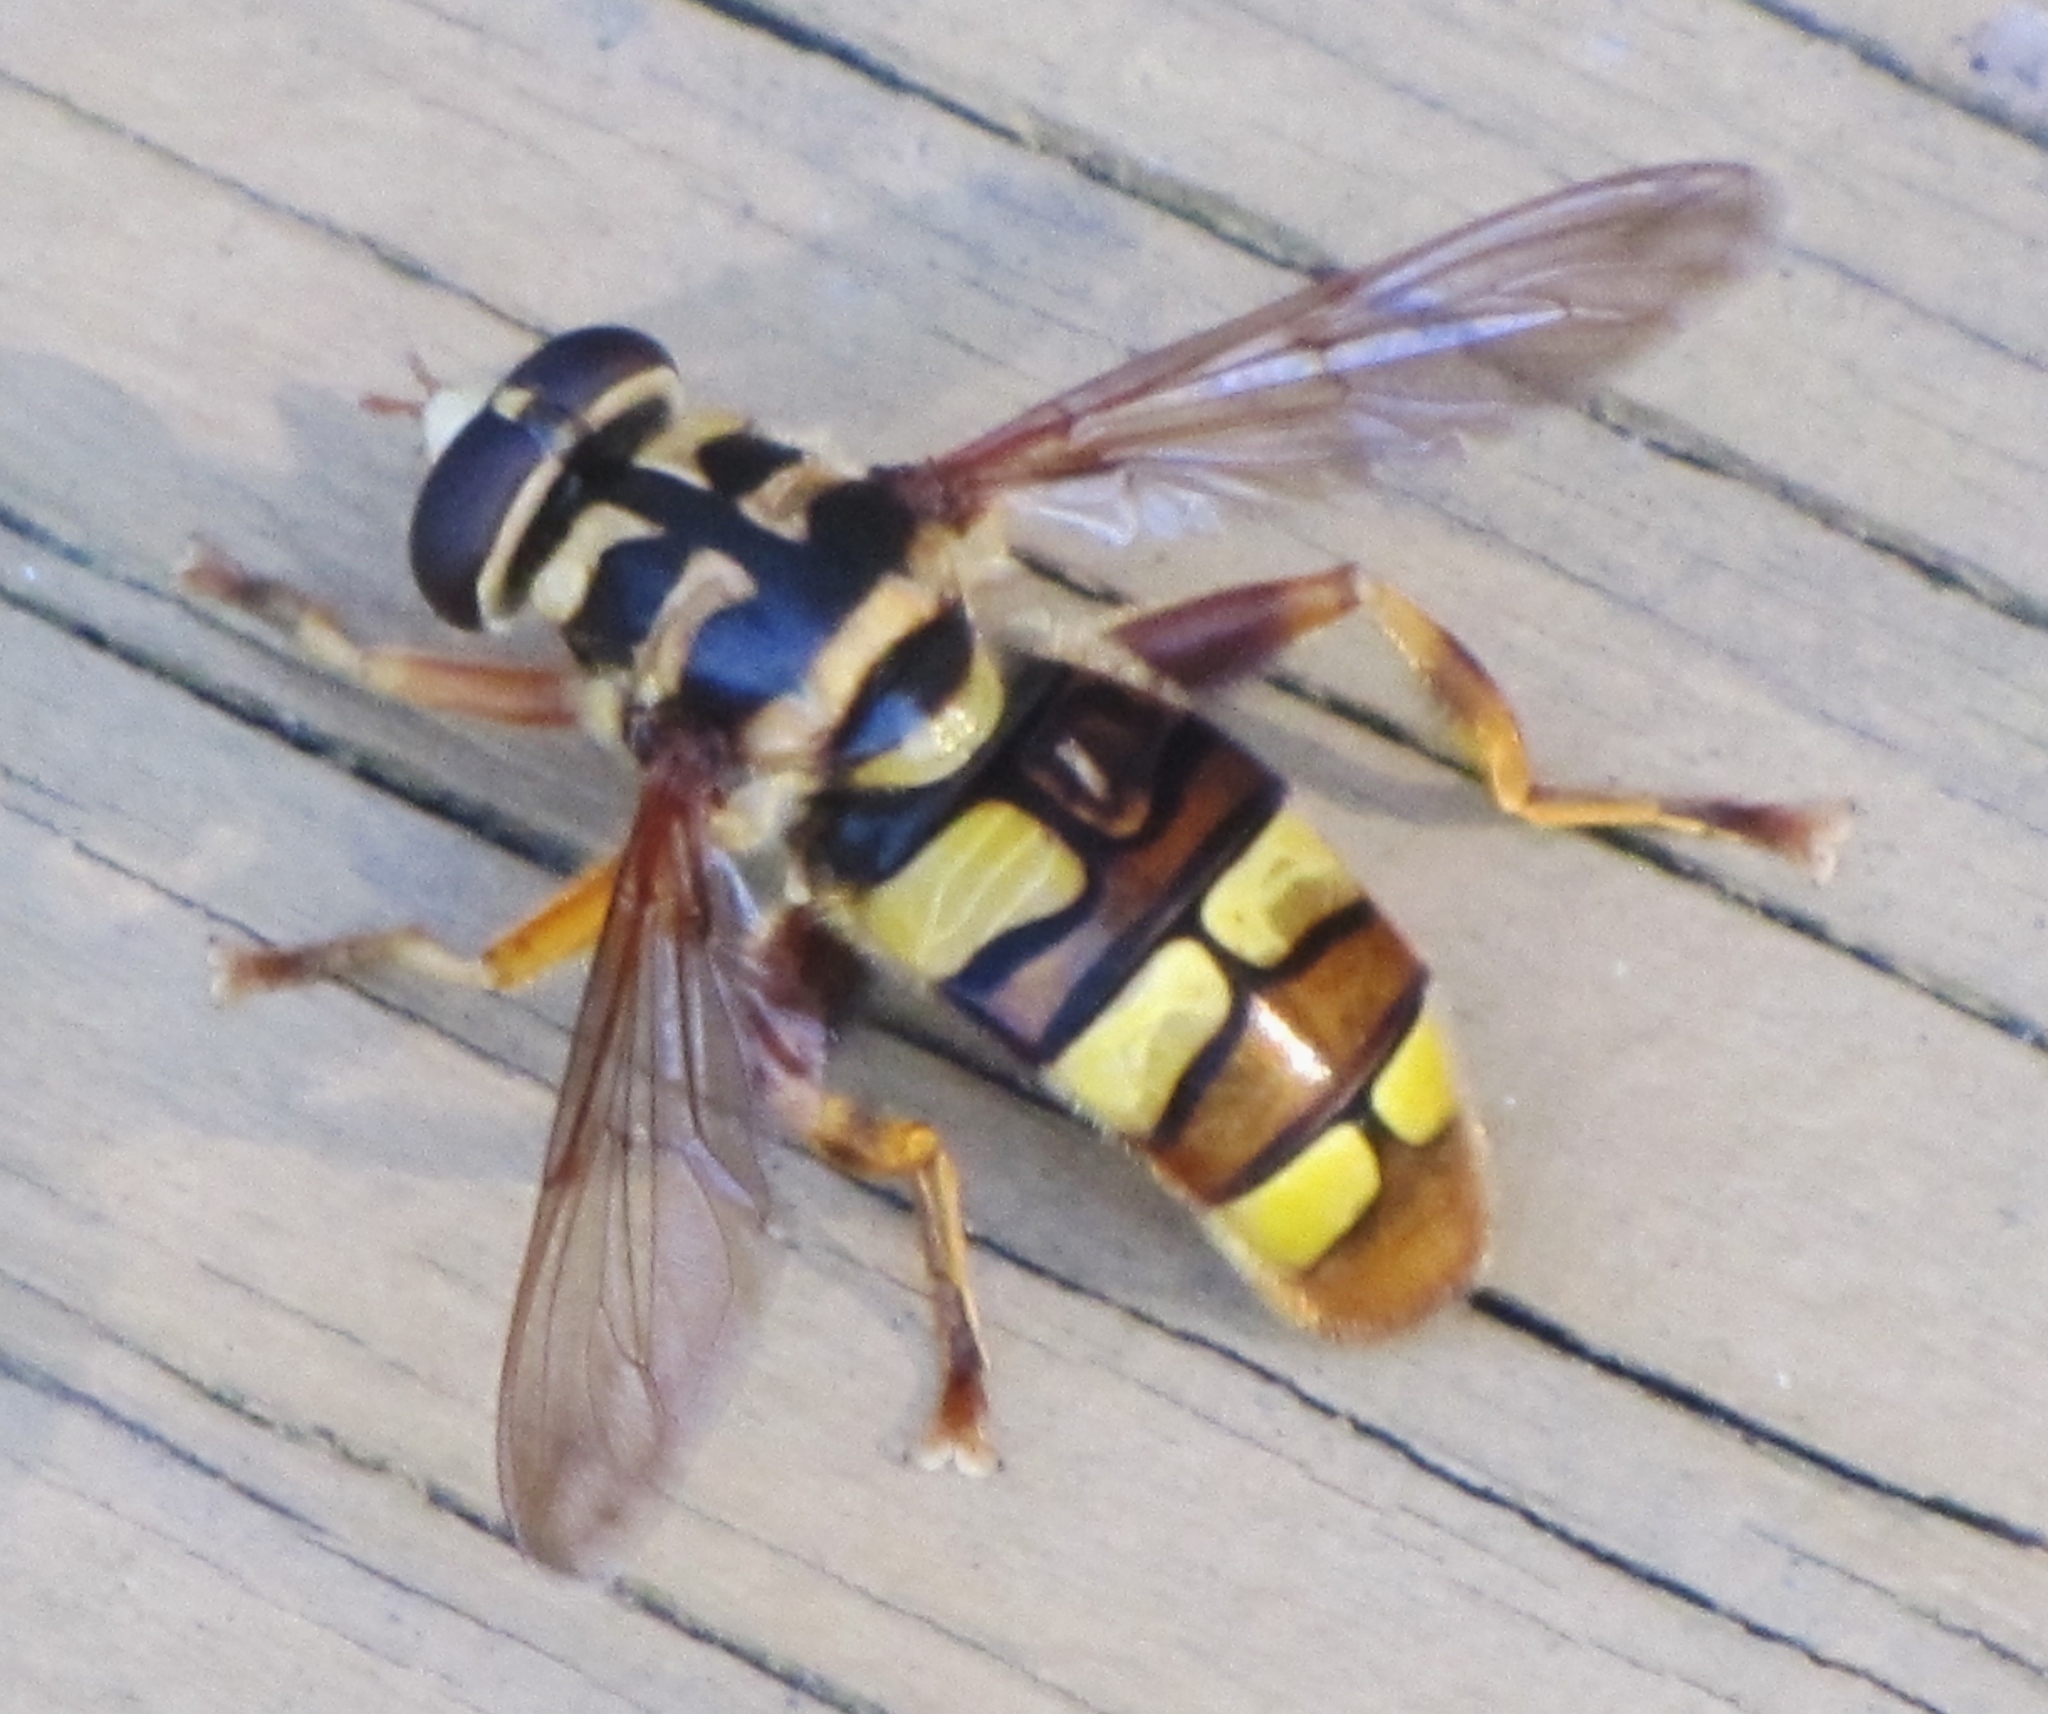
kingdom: Animalia
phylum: Arthropoda
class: Insecta
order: Diptera
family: Syrphidae
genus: Milesia
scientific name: Milesia virginiensis
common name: Virginia giant
